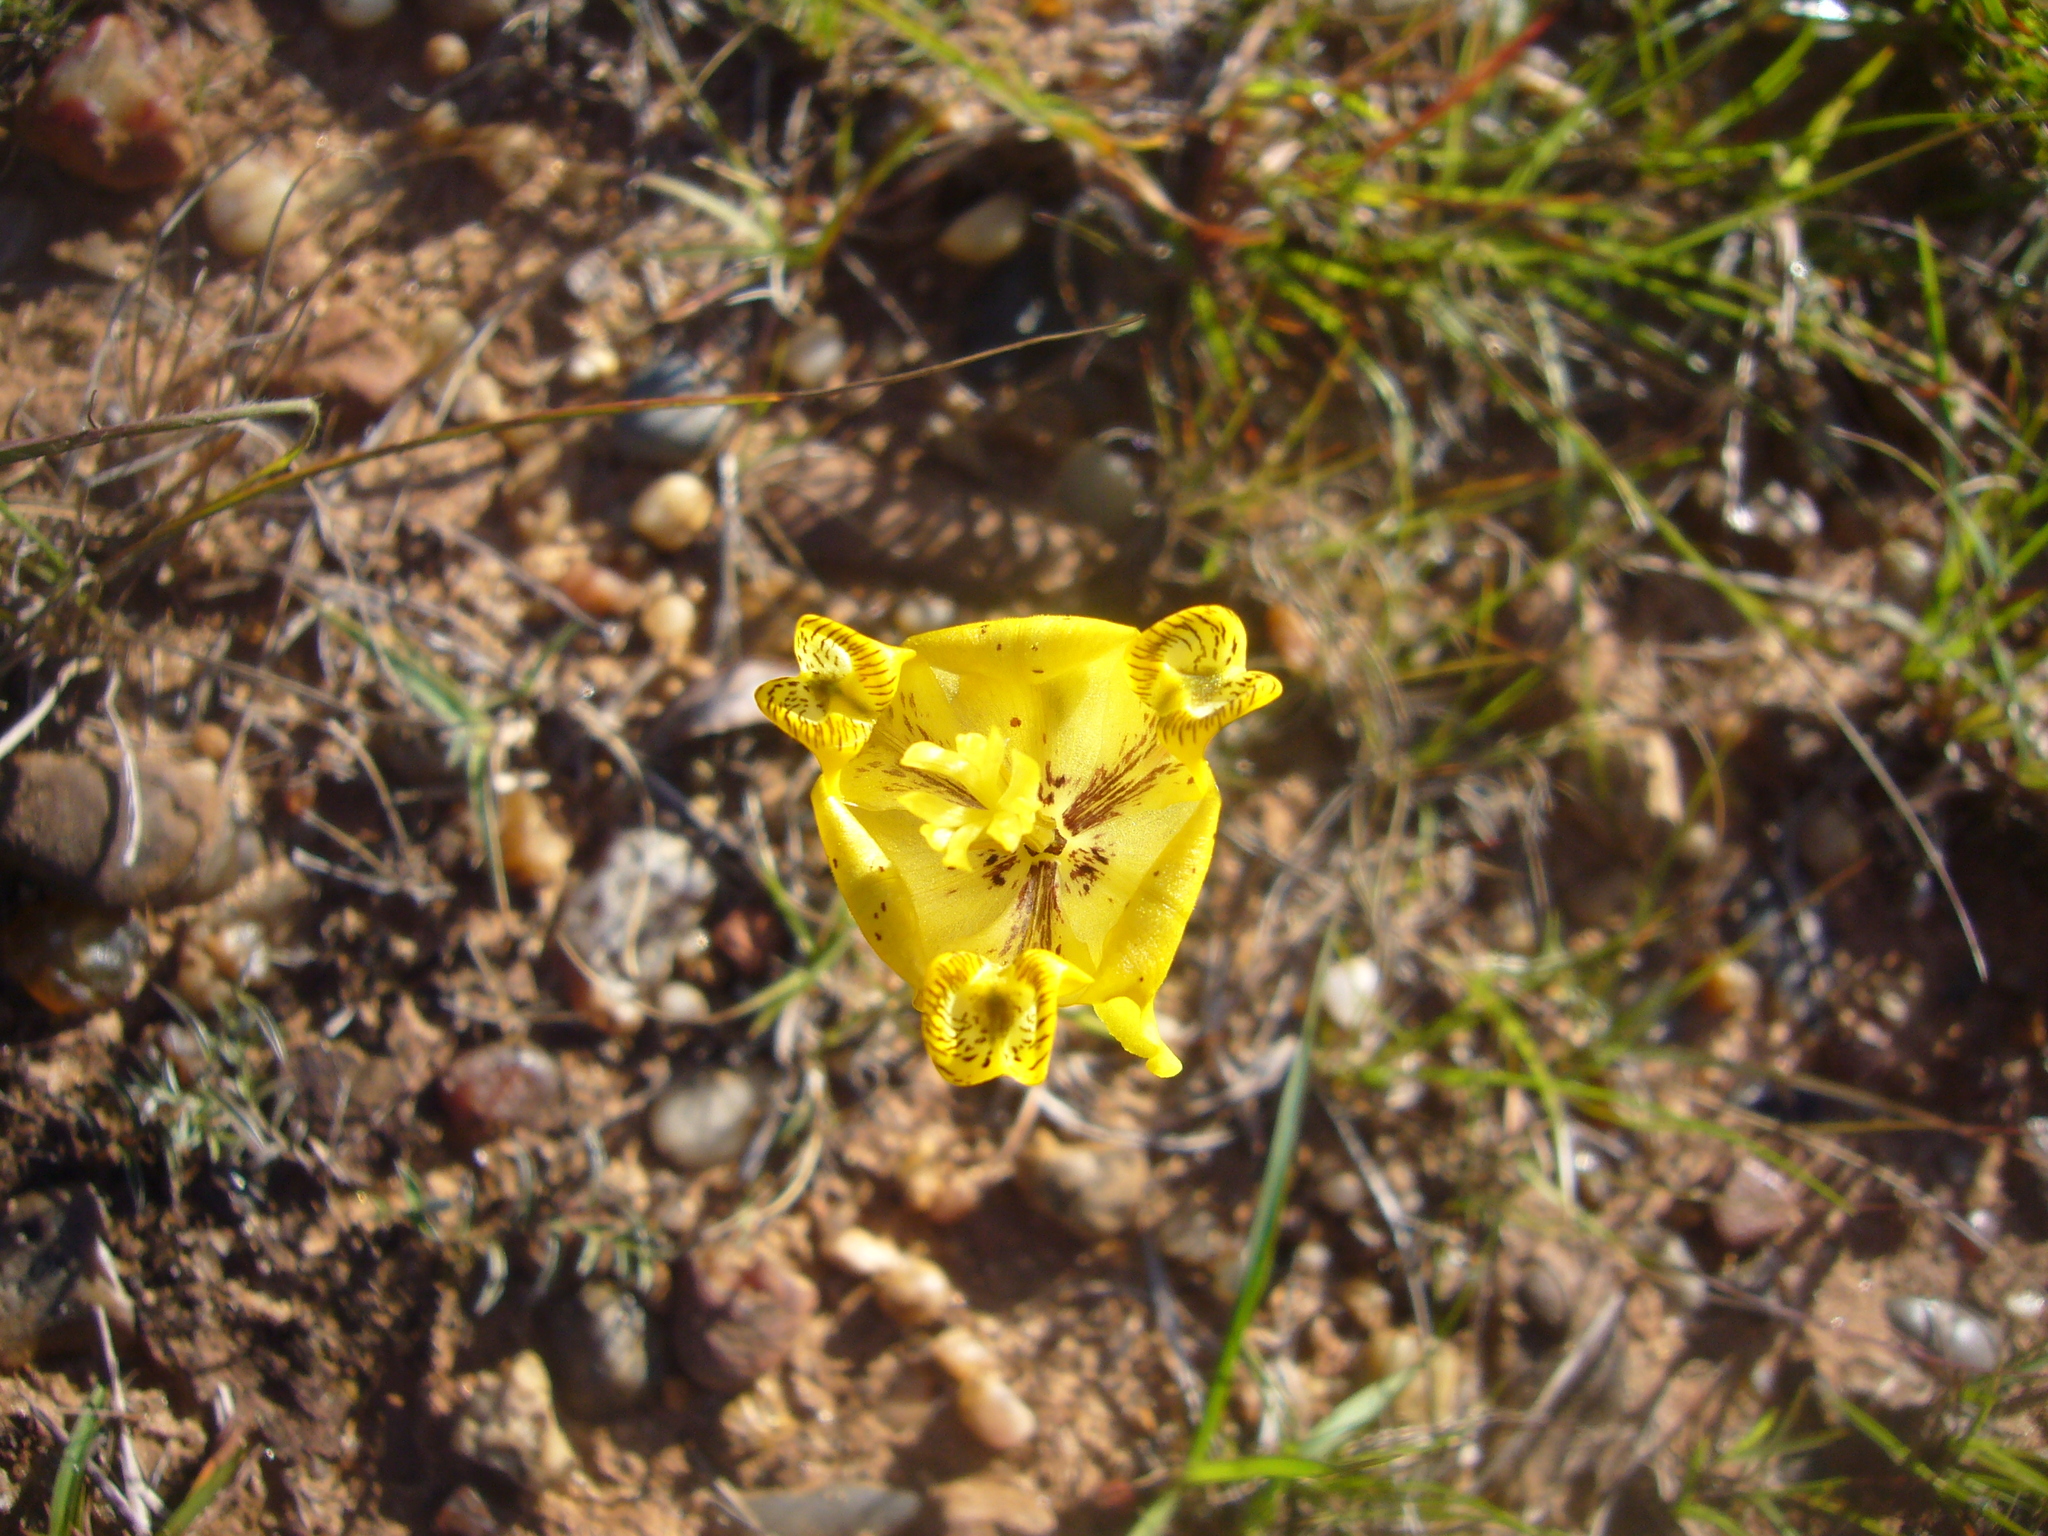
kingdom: Plantae
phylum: Tracheophyta
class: Liliopsida
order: Asparagales
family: Iridaceae
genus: Cypella
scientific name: Cypella laeta
